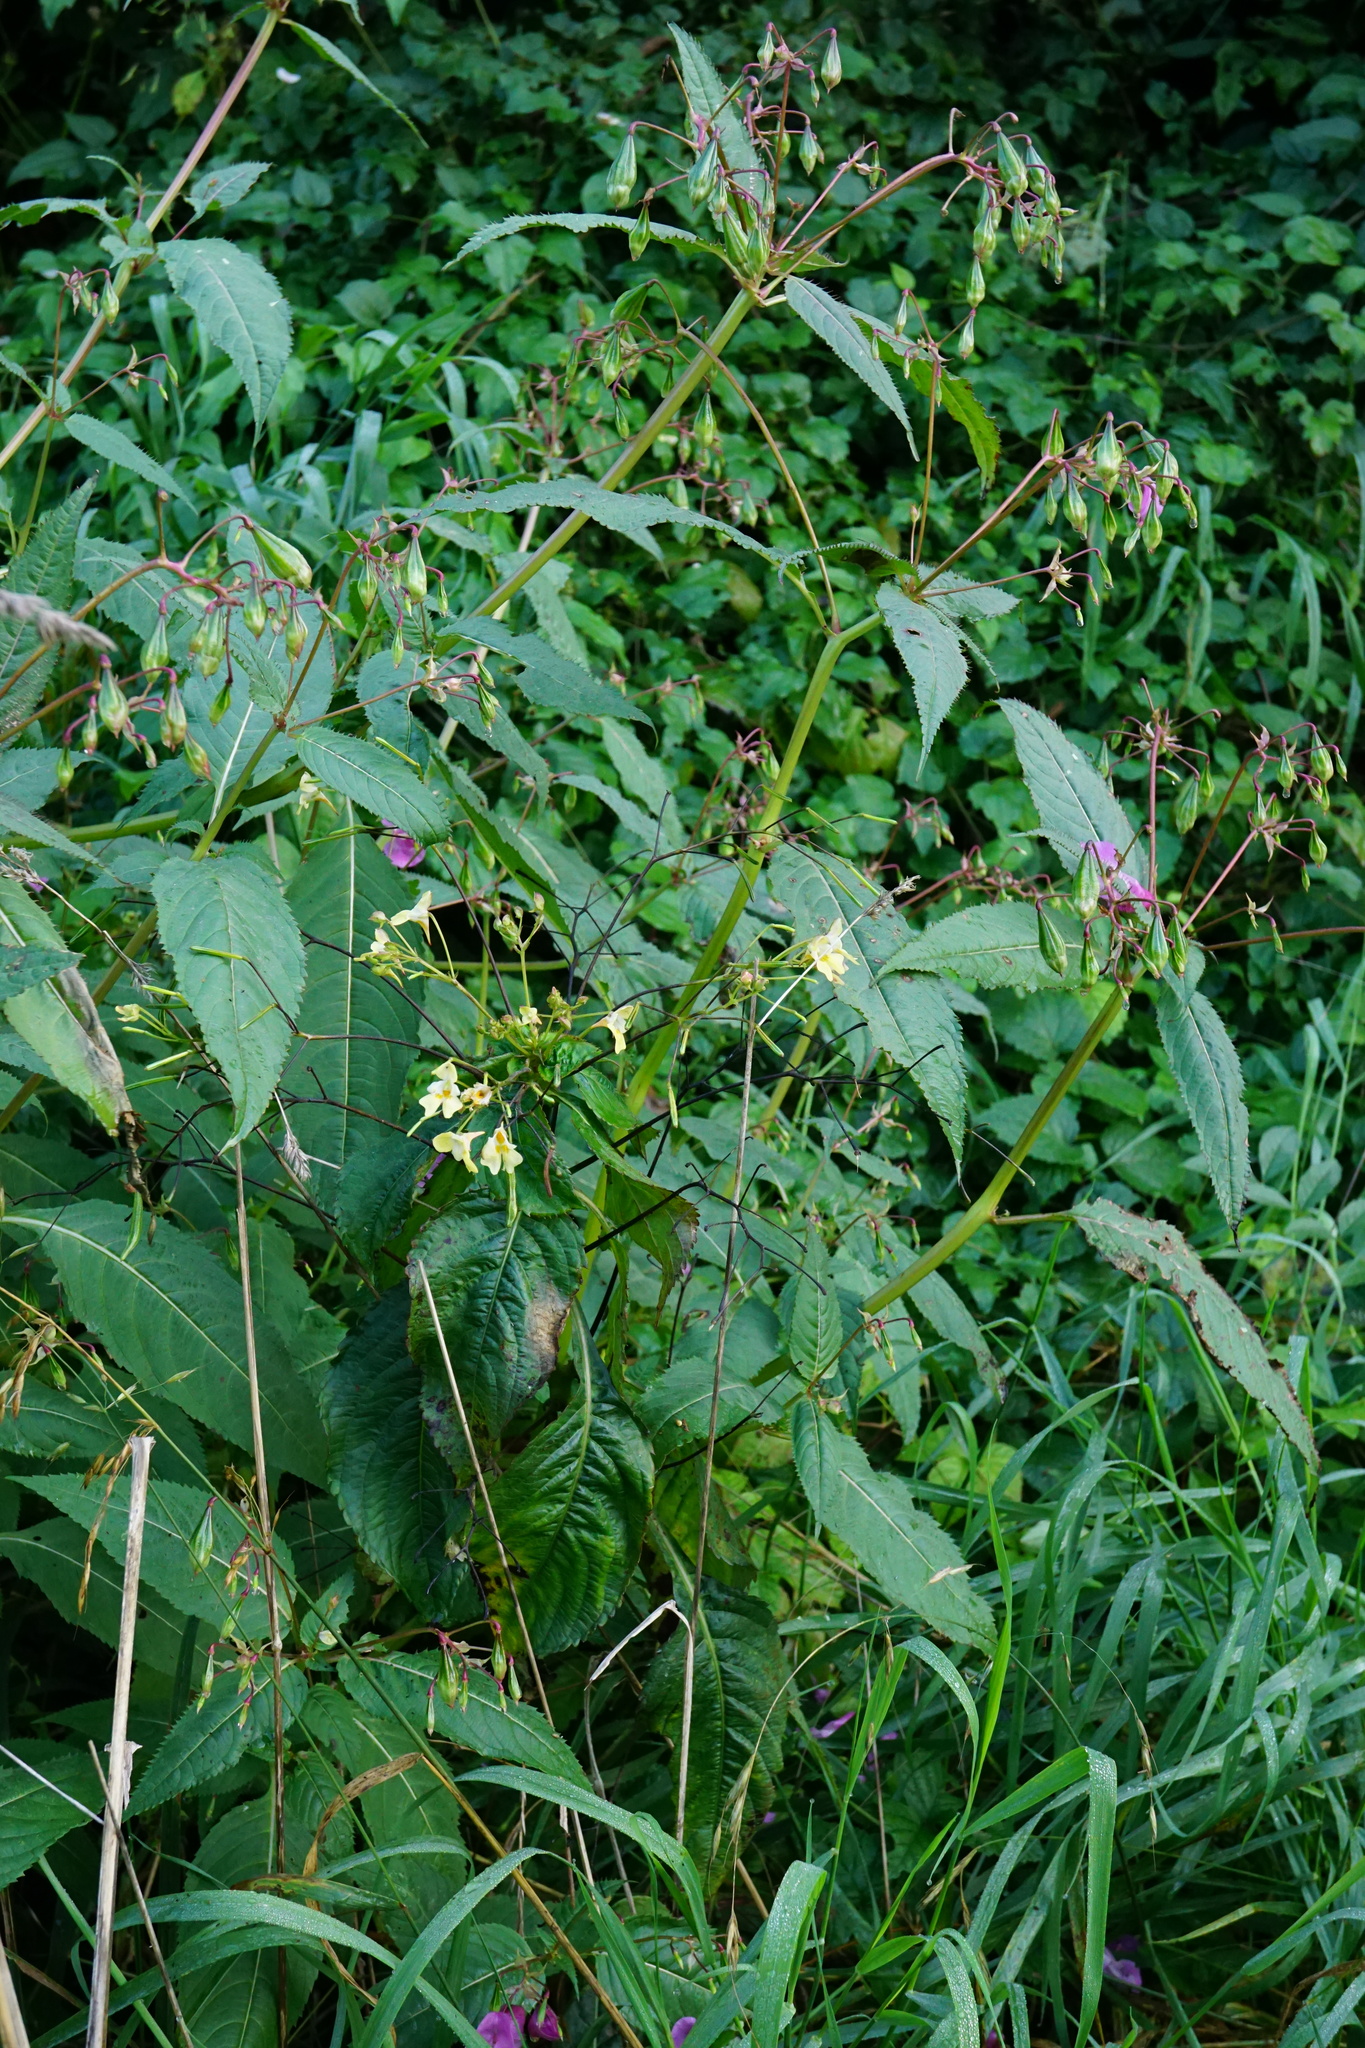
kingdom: Plantae
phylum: Tracheophyta
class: Magnoliopsida
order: Ericales
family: Balsaminaceae
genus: Impatiens
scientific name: Impatiens glandulifera
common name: Himalayan balsam
